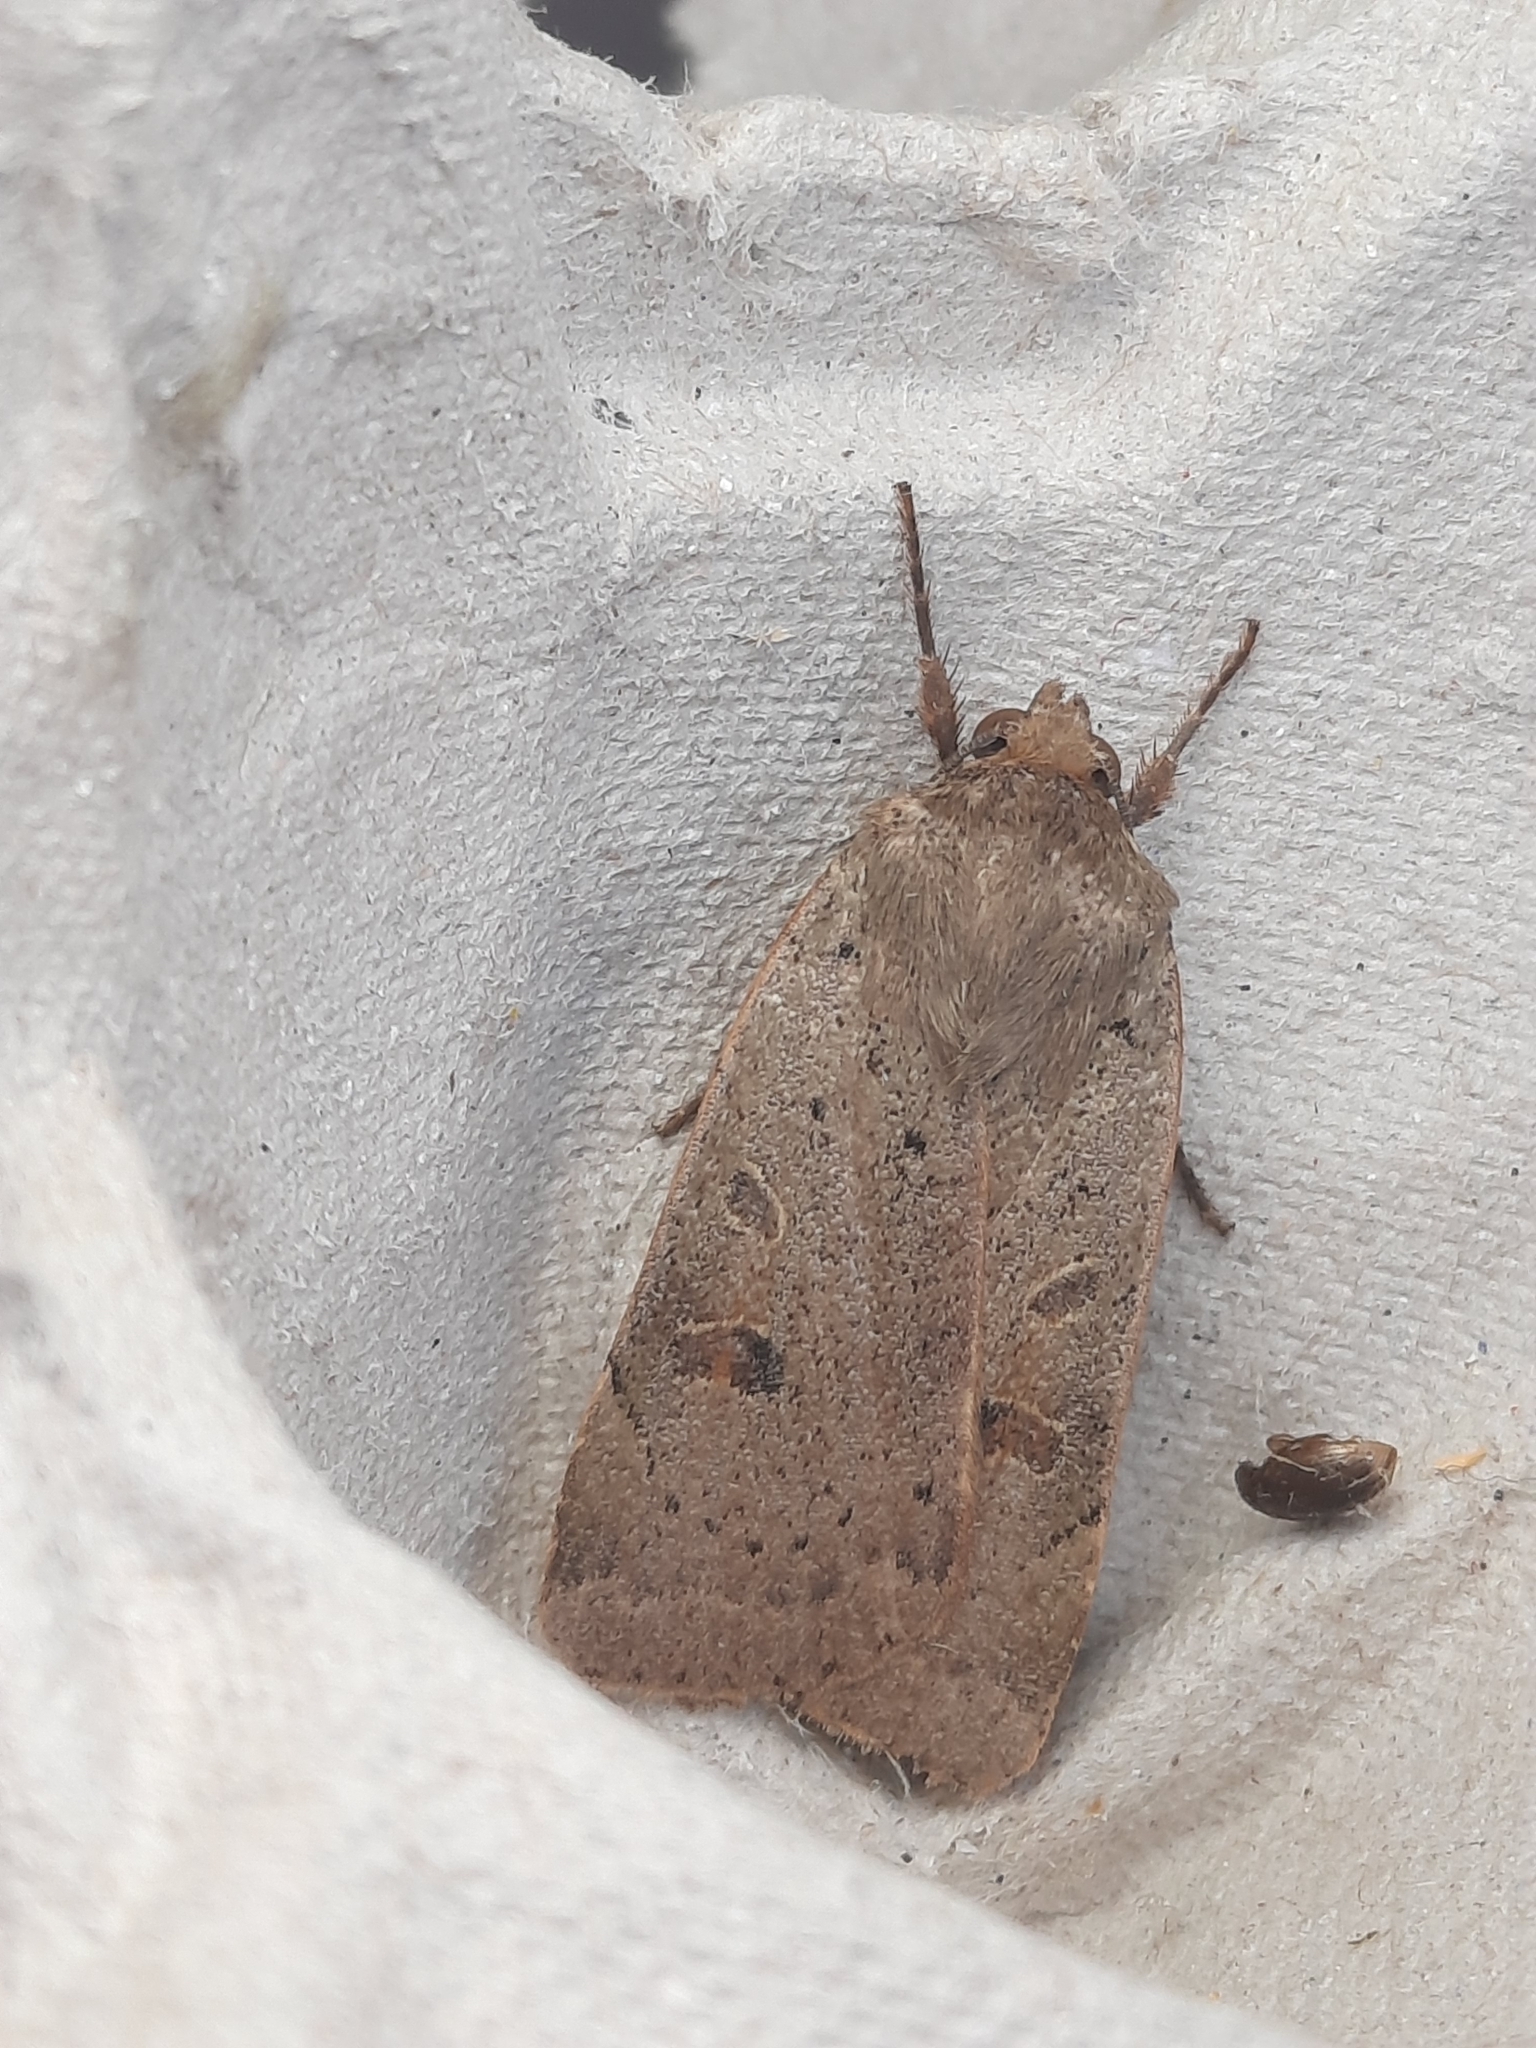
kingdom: Animalia
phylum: Arthropoda
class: Insecta
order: Lepidoptera
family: Noctuidae
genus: Noctua
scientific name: Noctua comes
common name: Lesser yellow underwing
